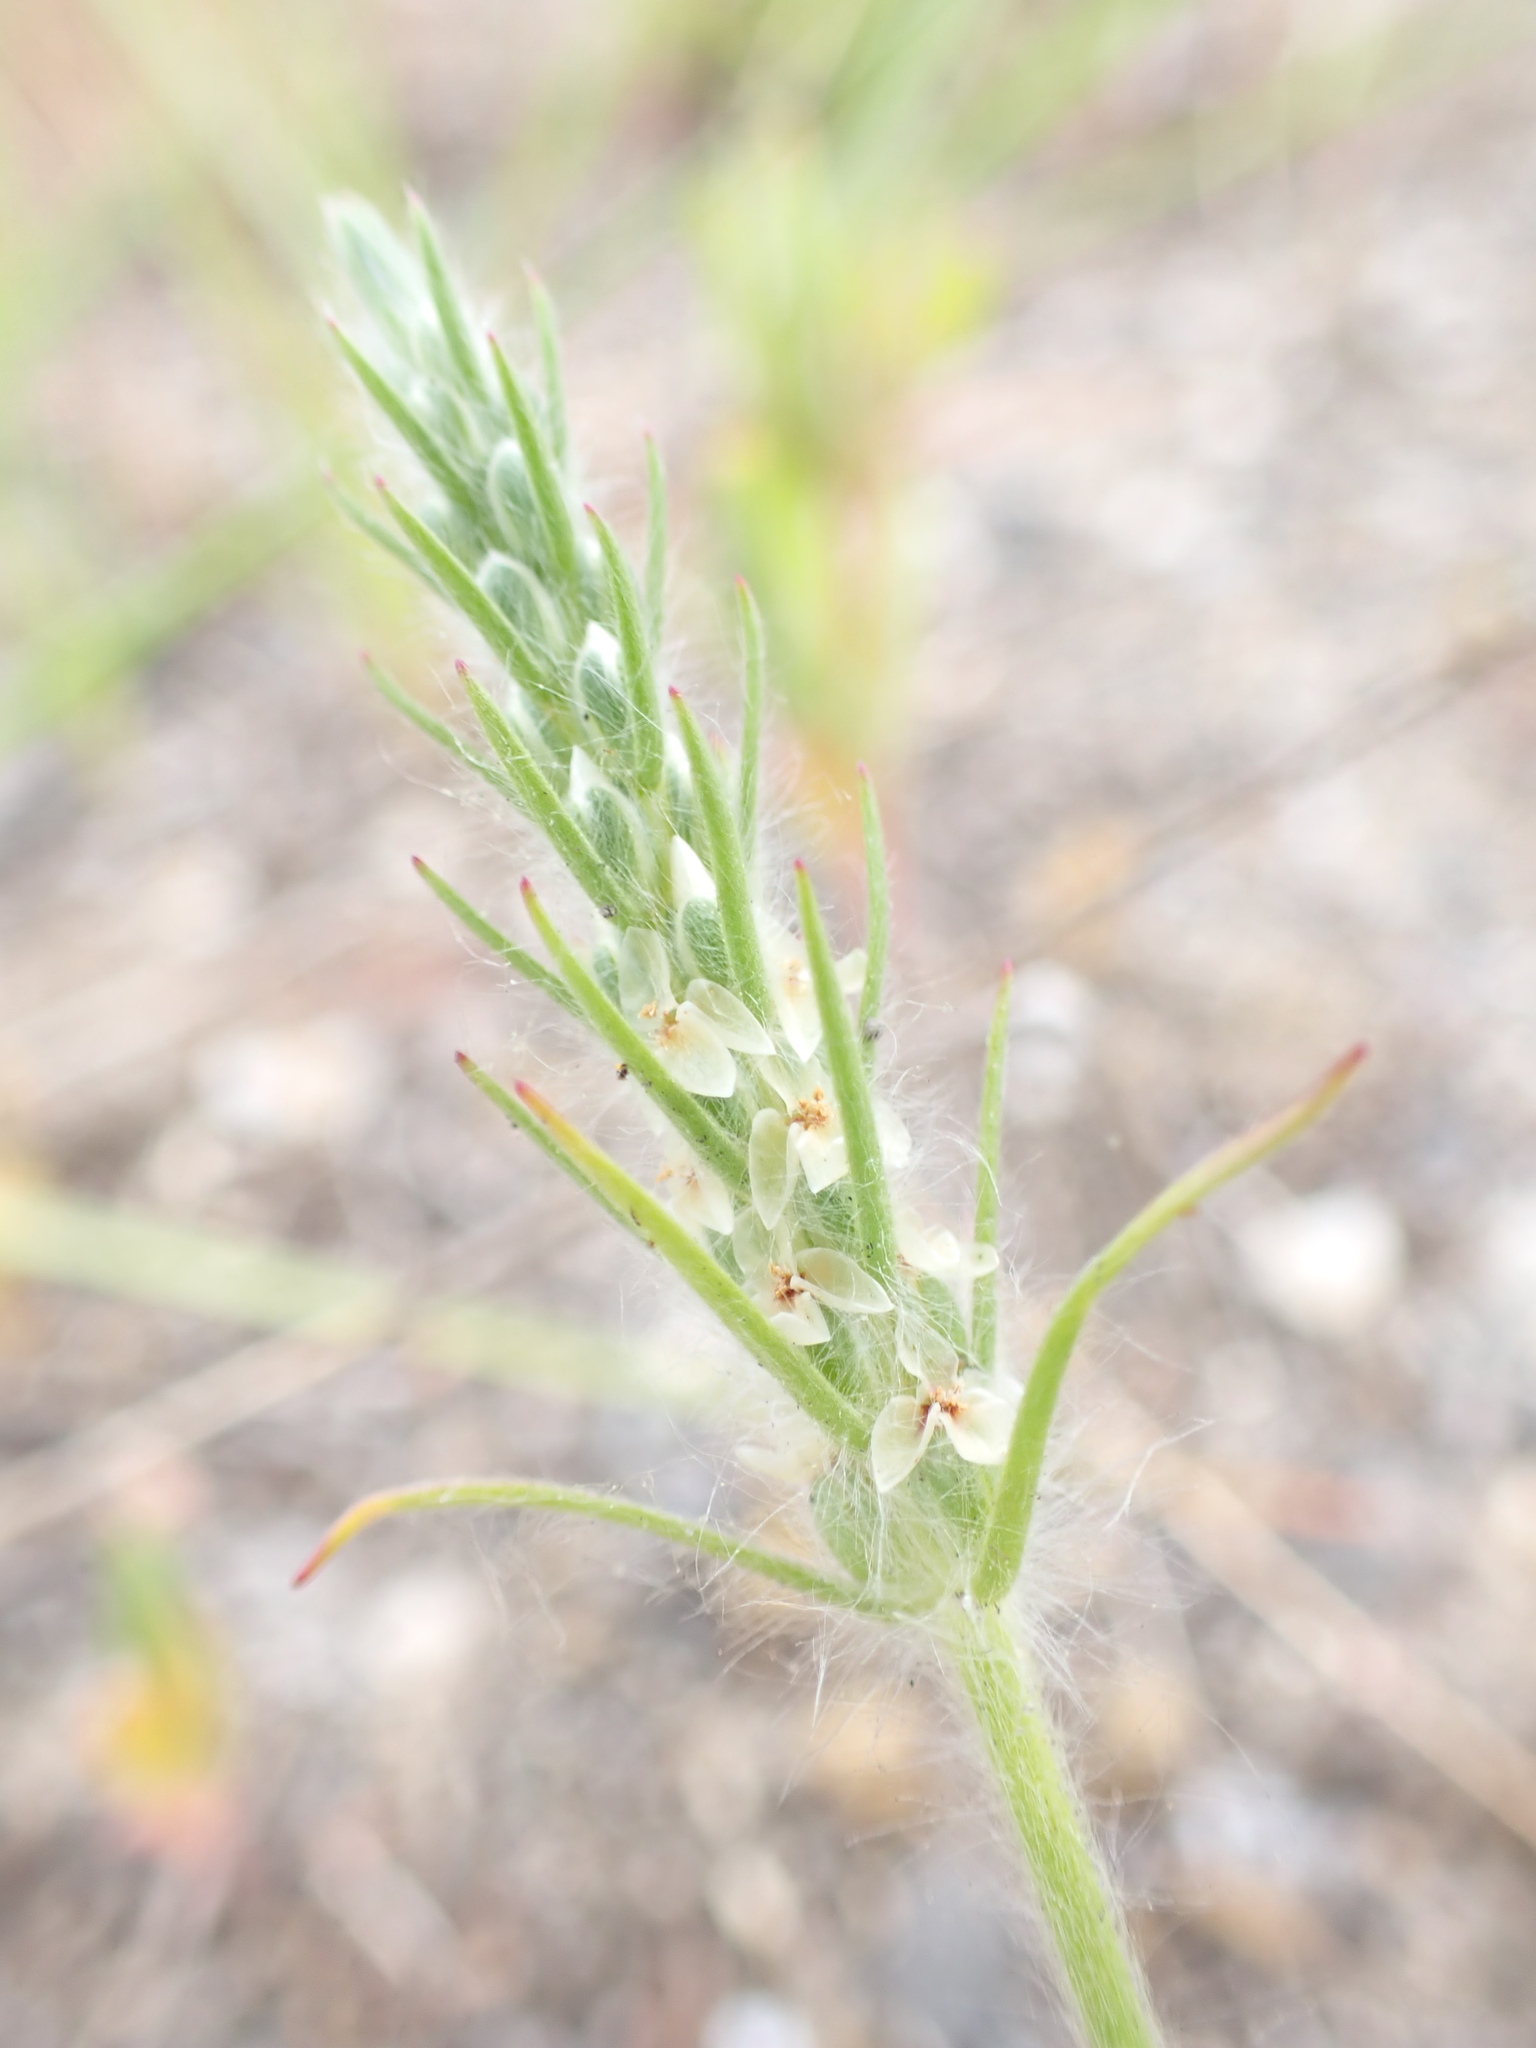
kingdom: Plantae
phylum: Tracheophyta
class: Magnoliopsida
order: Lamiales
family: Plantaginaceae
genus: Plantago
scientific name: Plantago aristata
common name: Bracted plantain
